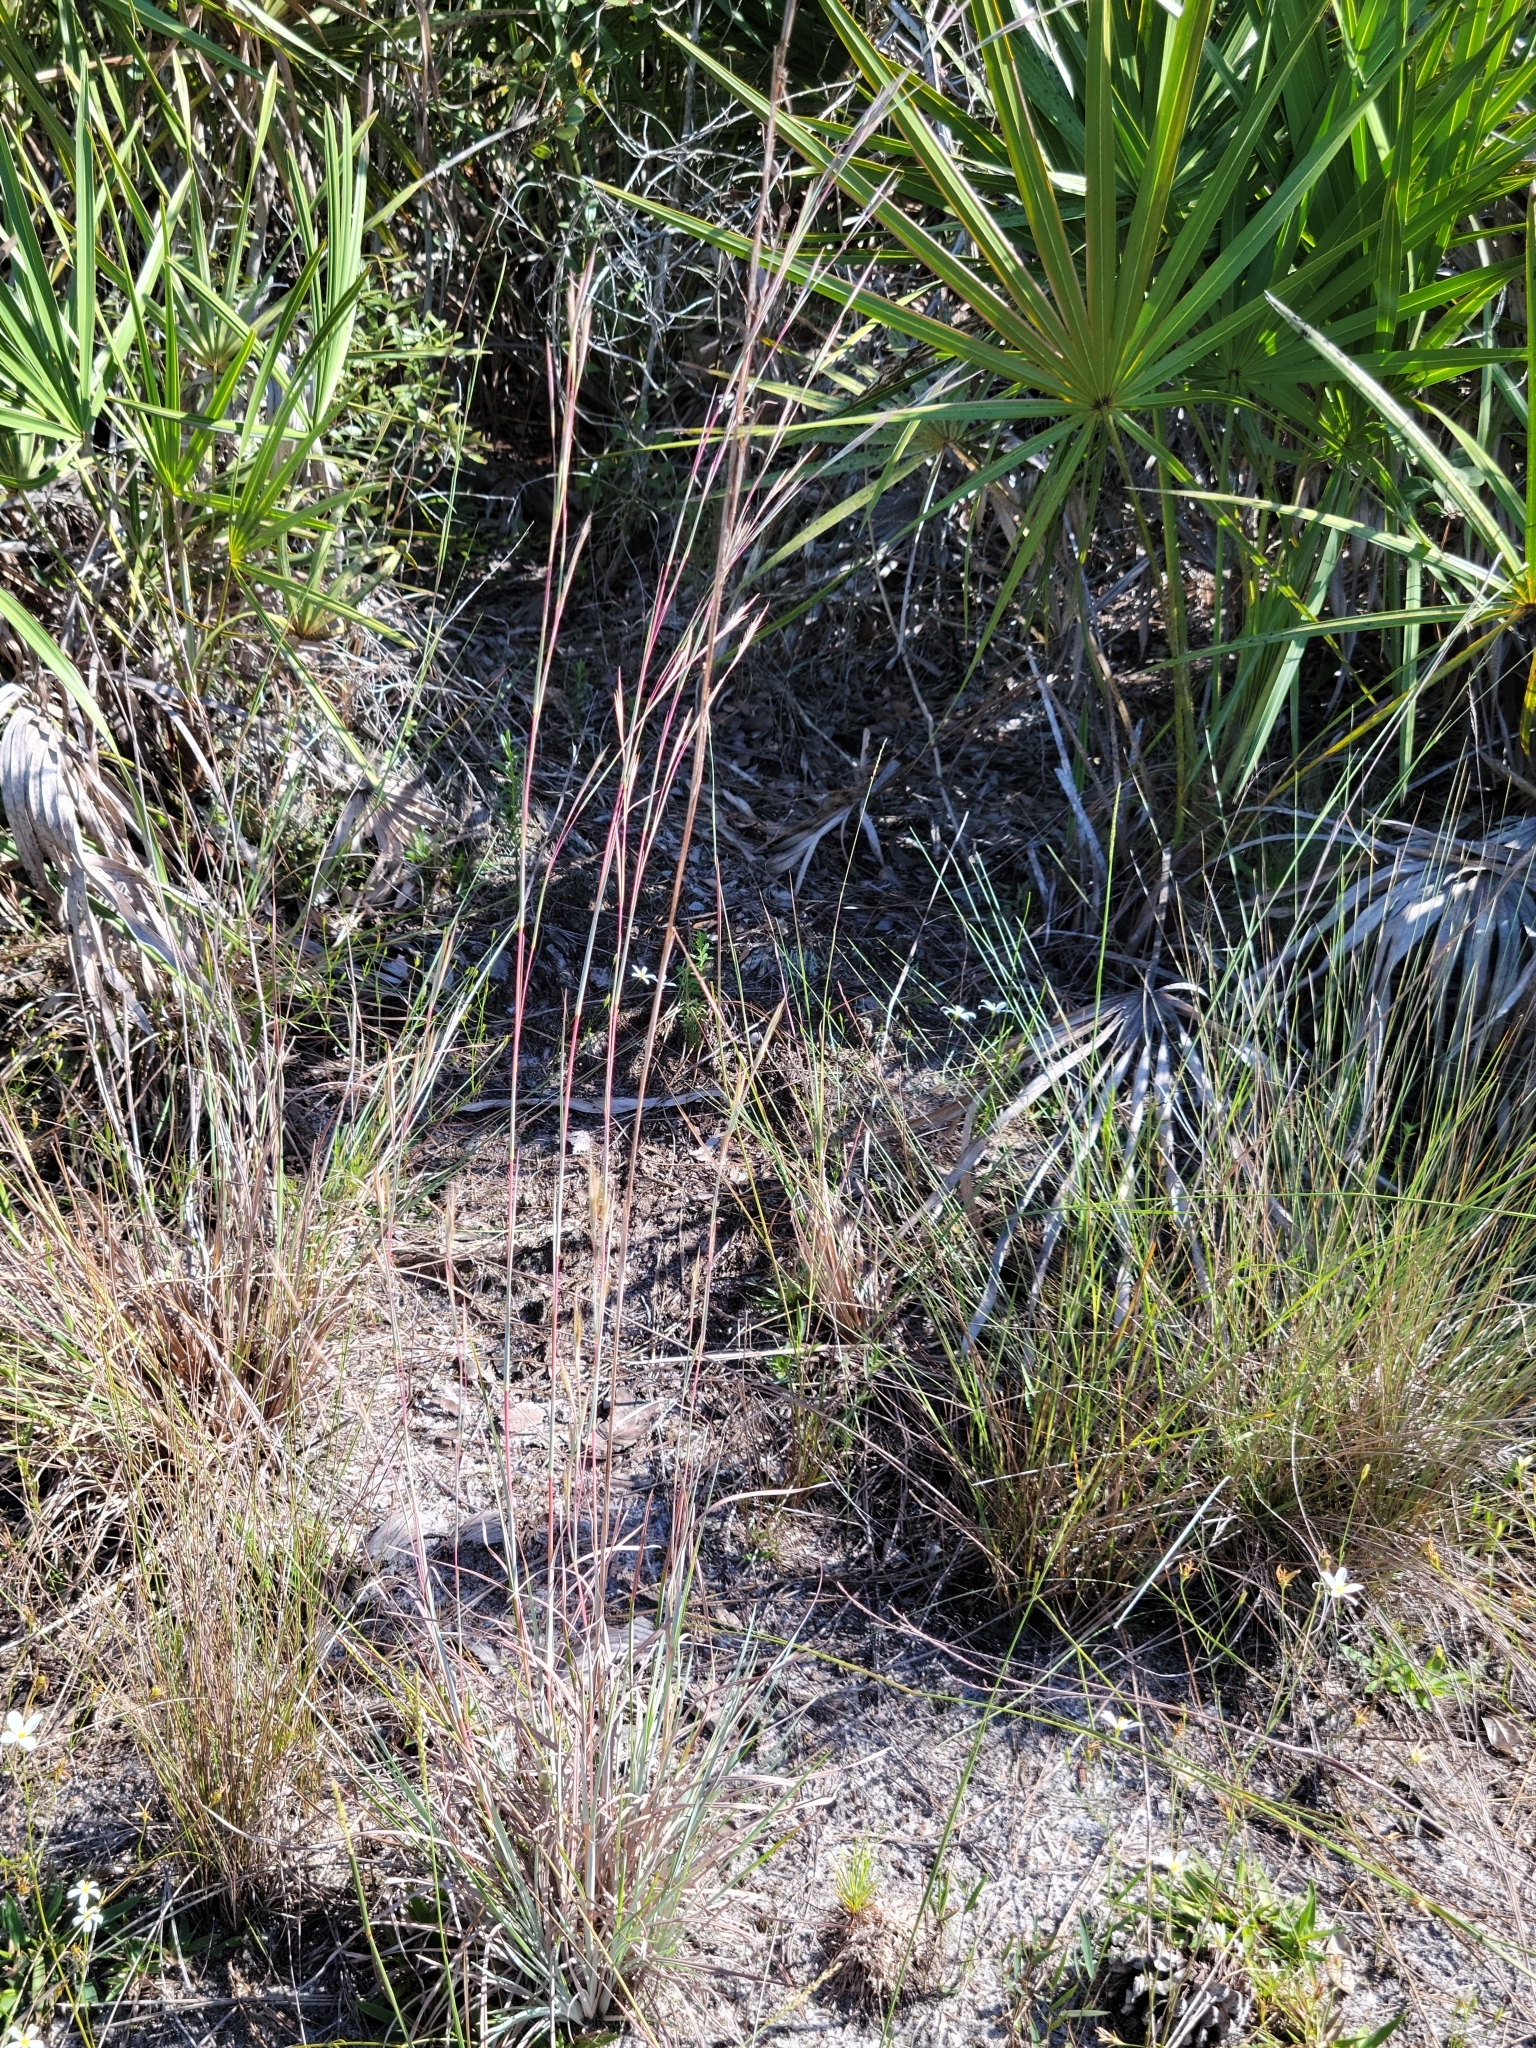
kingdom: Plantae
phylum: Tracheophyta
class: Liliopsida
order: Poales
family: Poaceae
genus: Andropogon
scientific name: Andropogon capillipes
